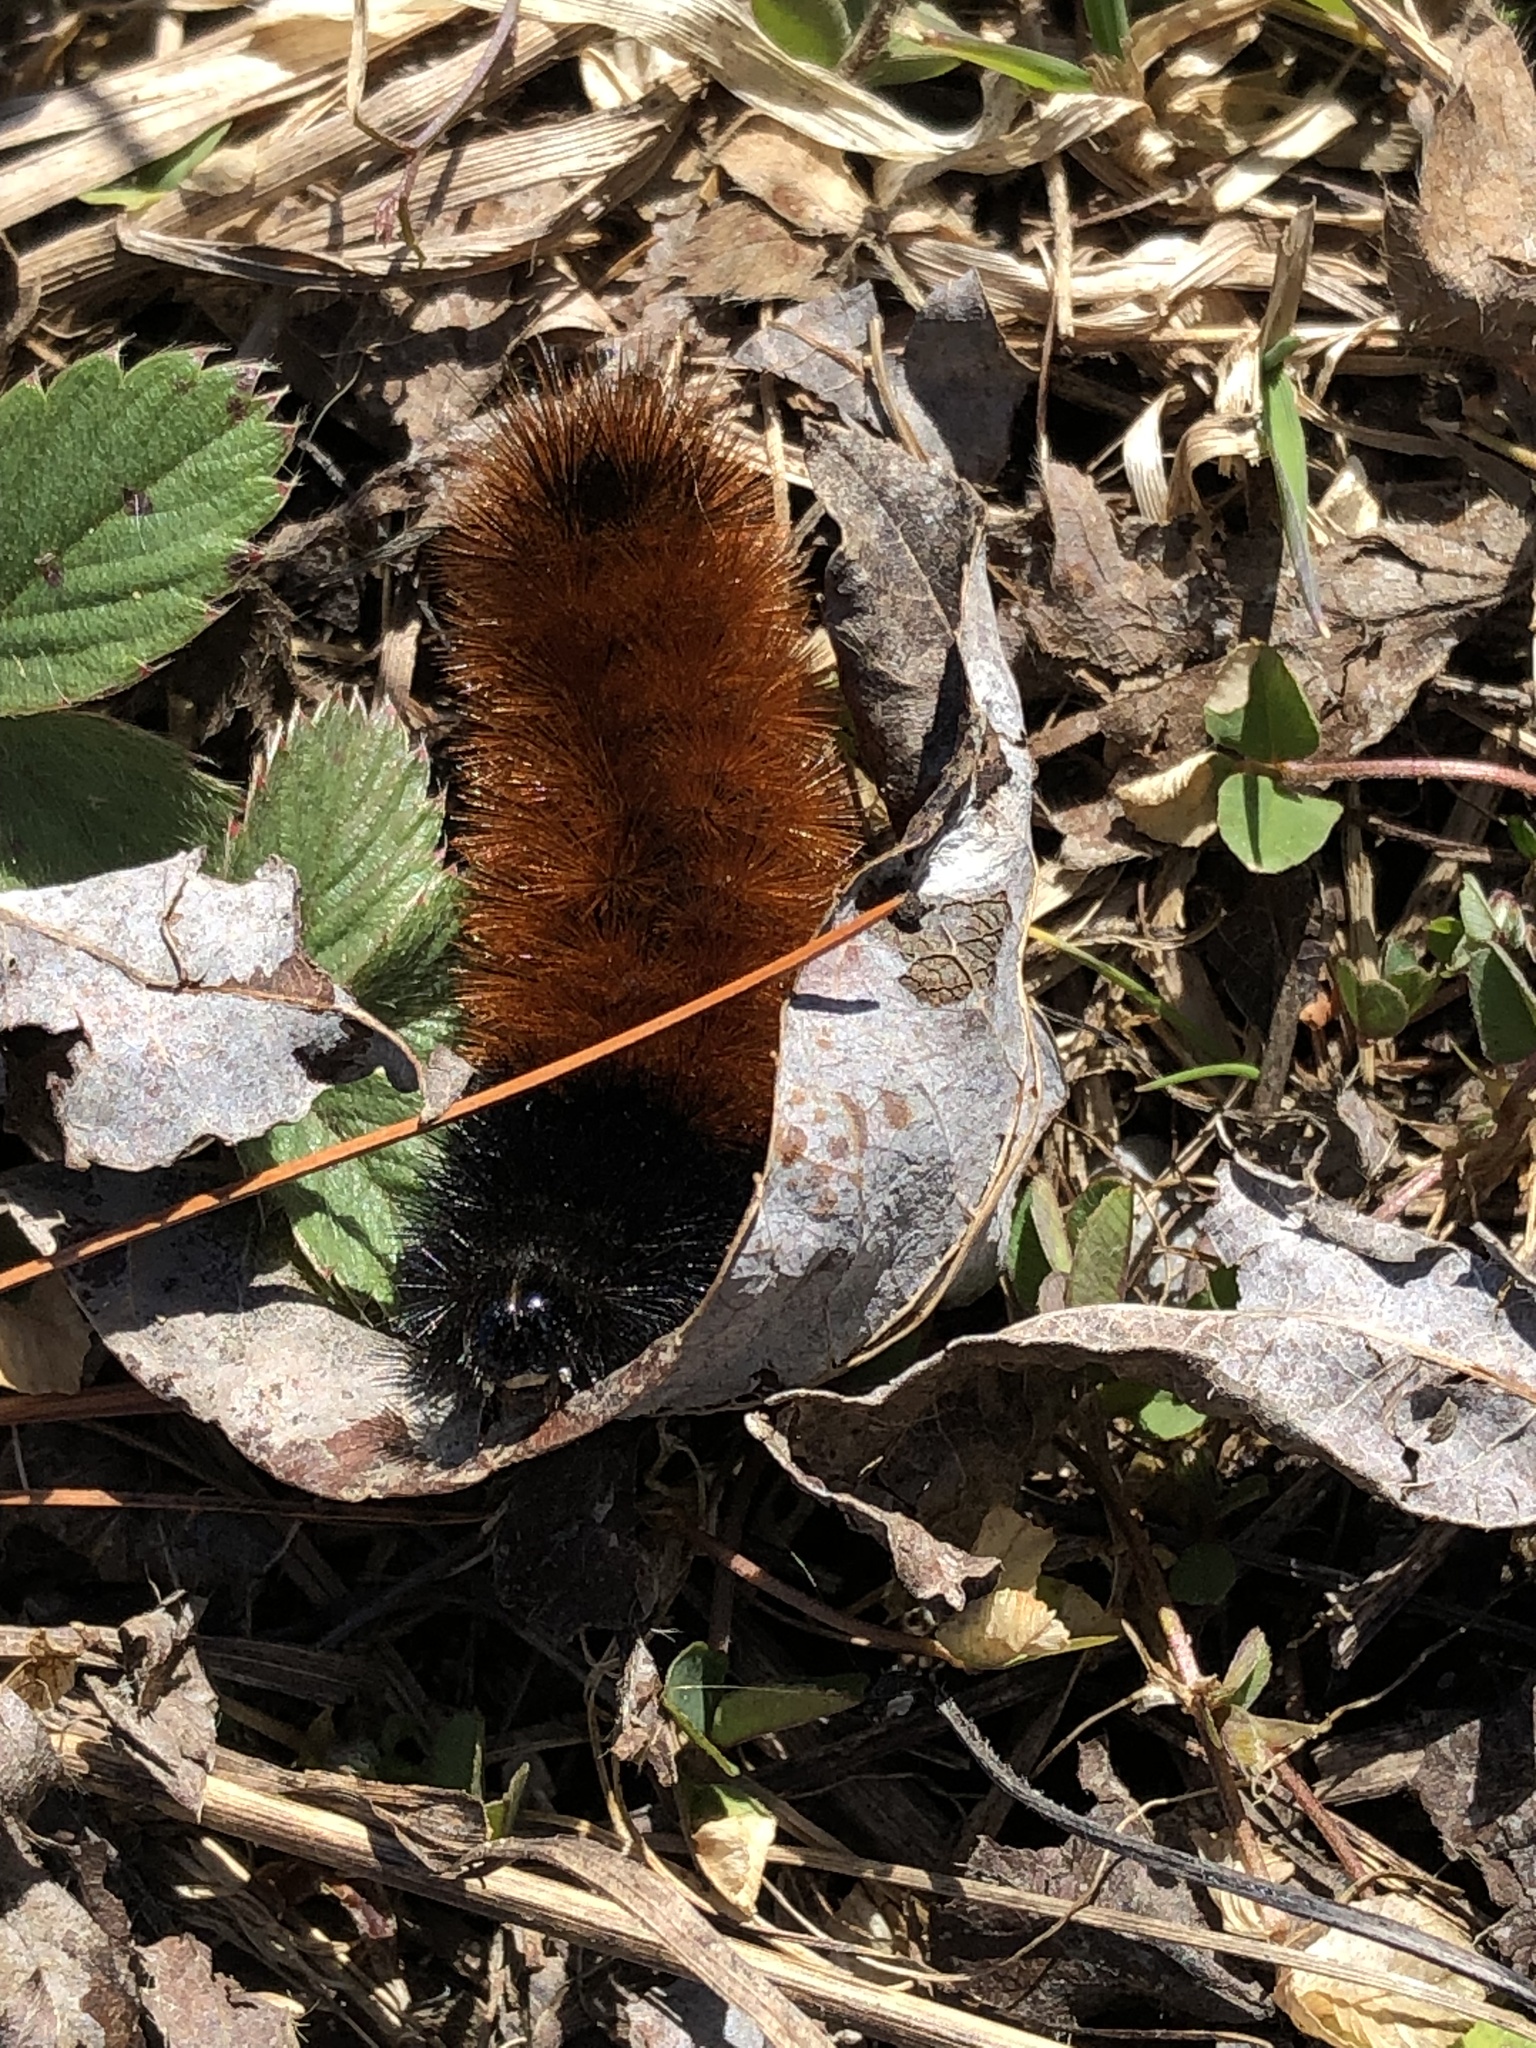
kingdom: Animalia
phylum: Arthropoda
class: Insecta
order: Lepidoptera
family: Erebidae
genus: Pyrrharctia
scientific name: Pyrrharctia isabella
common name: Isabella tiger moth
